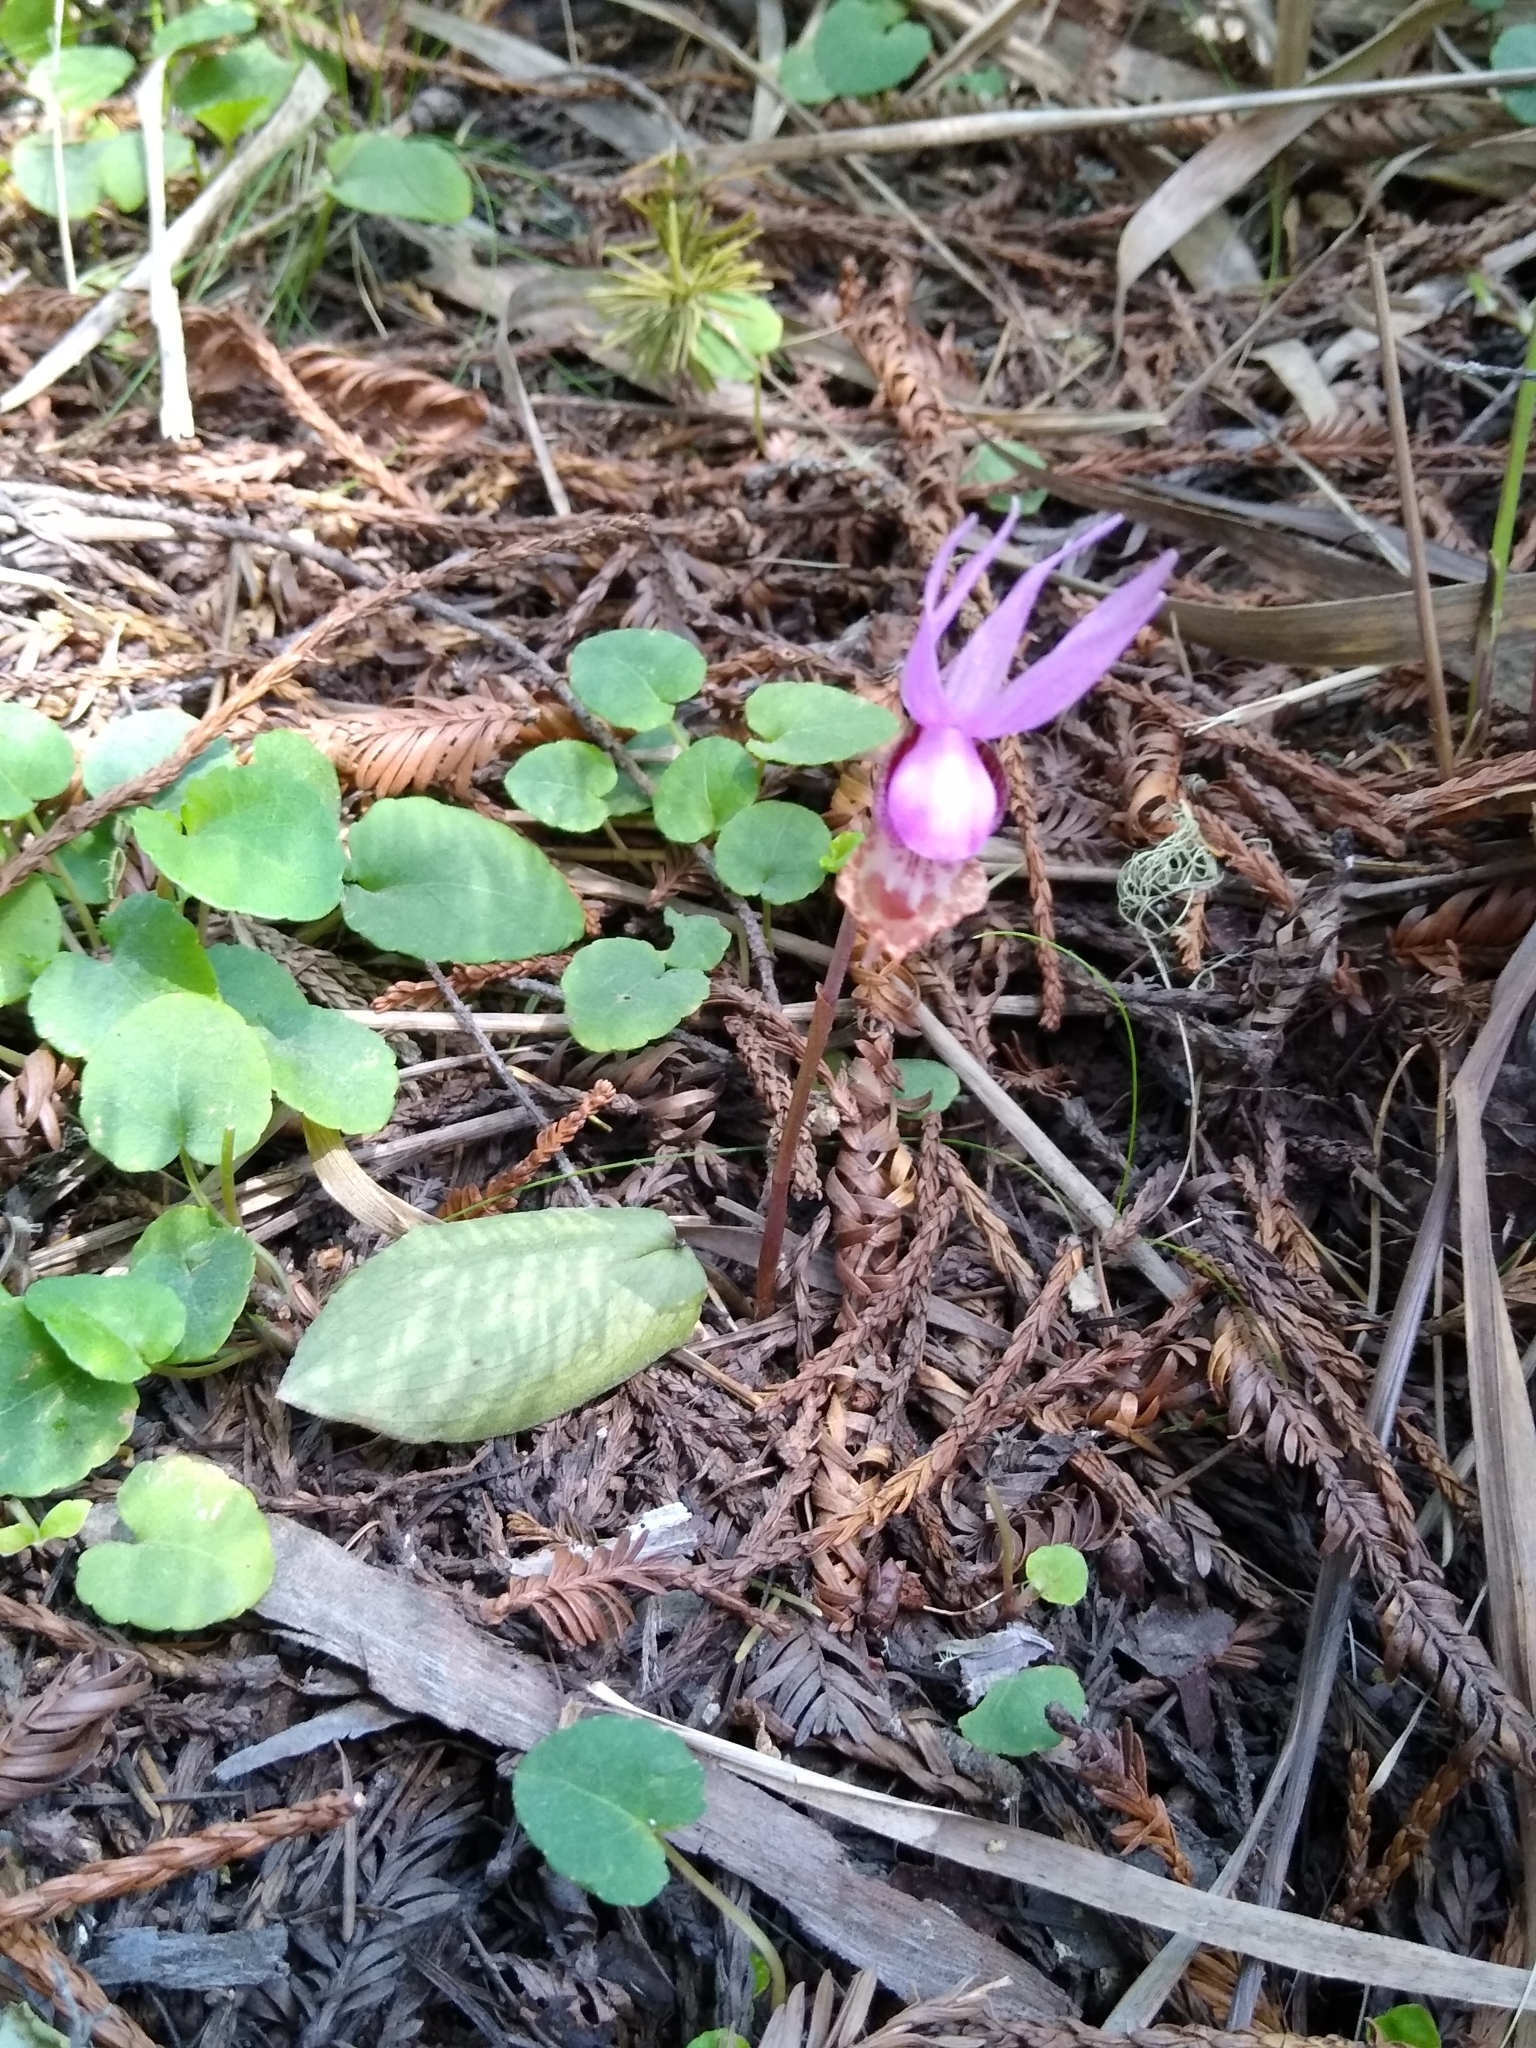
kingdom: Plantae
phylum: Tracheophyta
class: Liliopsida
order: Asparagales
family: Orchidaceae
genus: Calypso
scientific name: Calypso bulbosa
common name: Calypso
